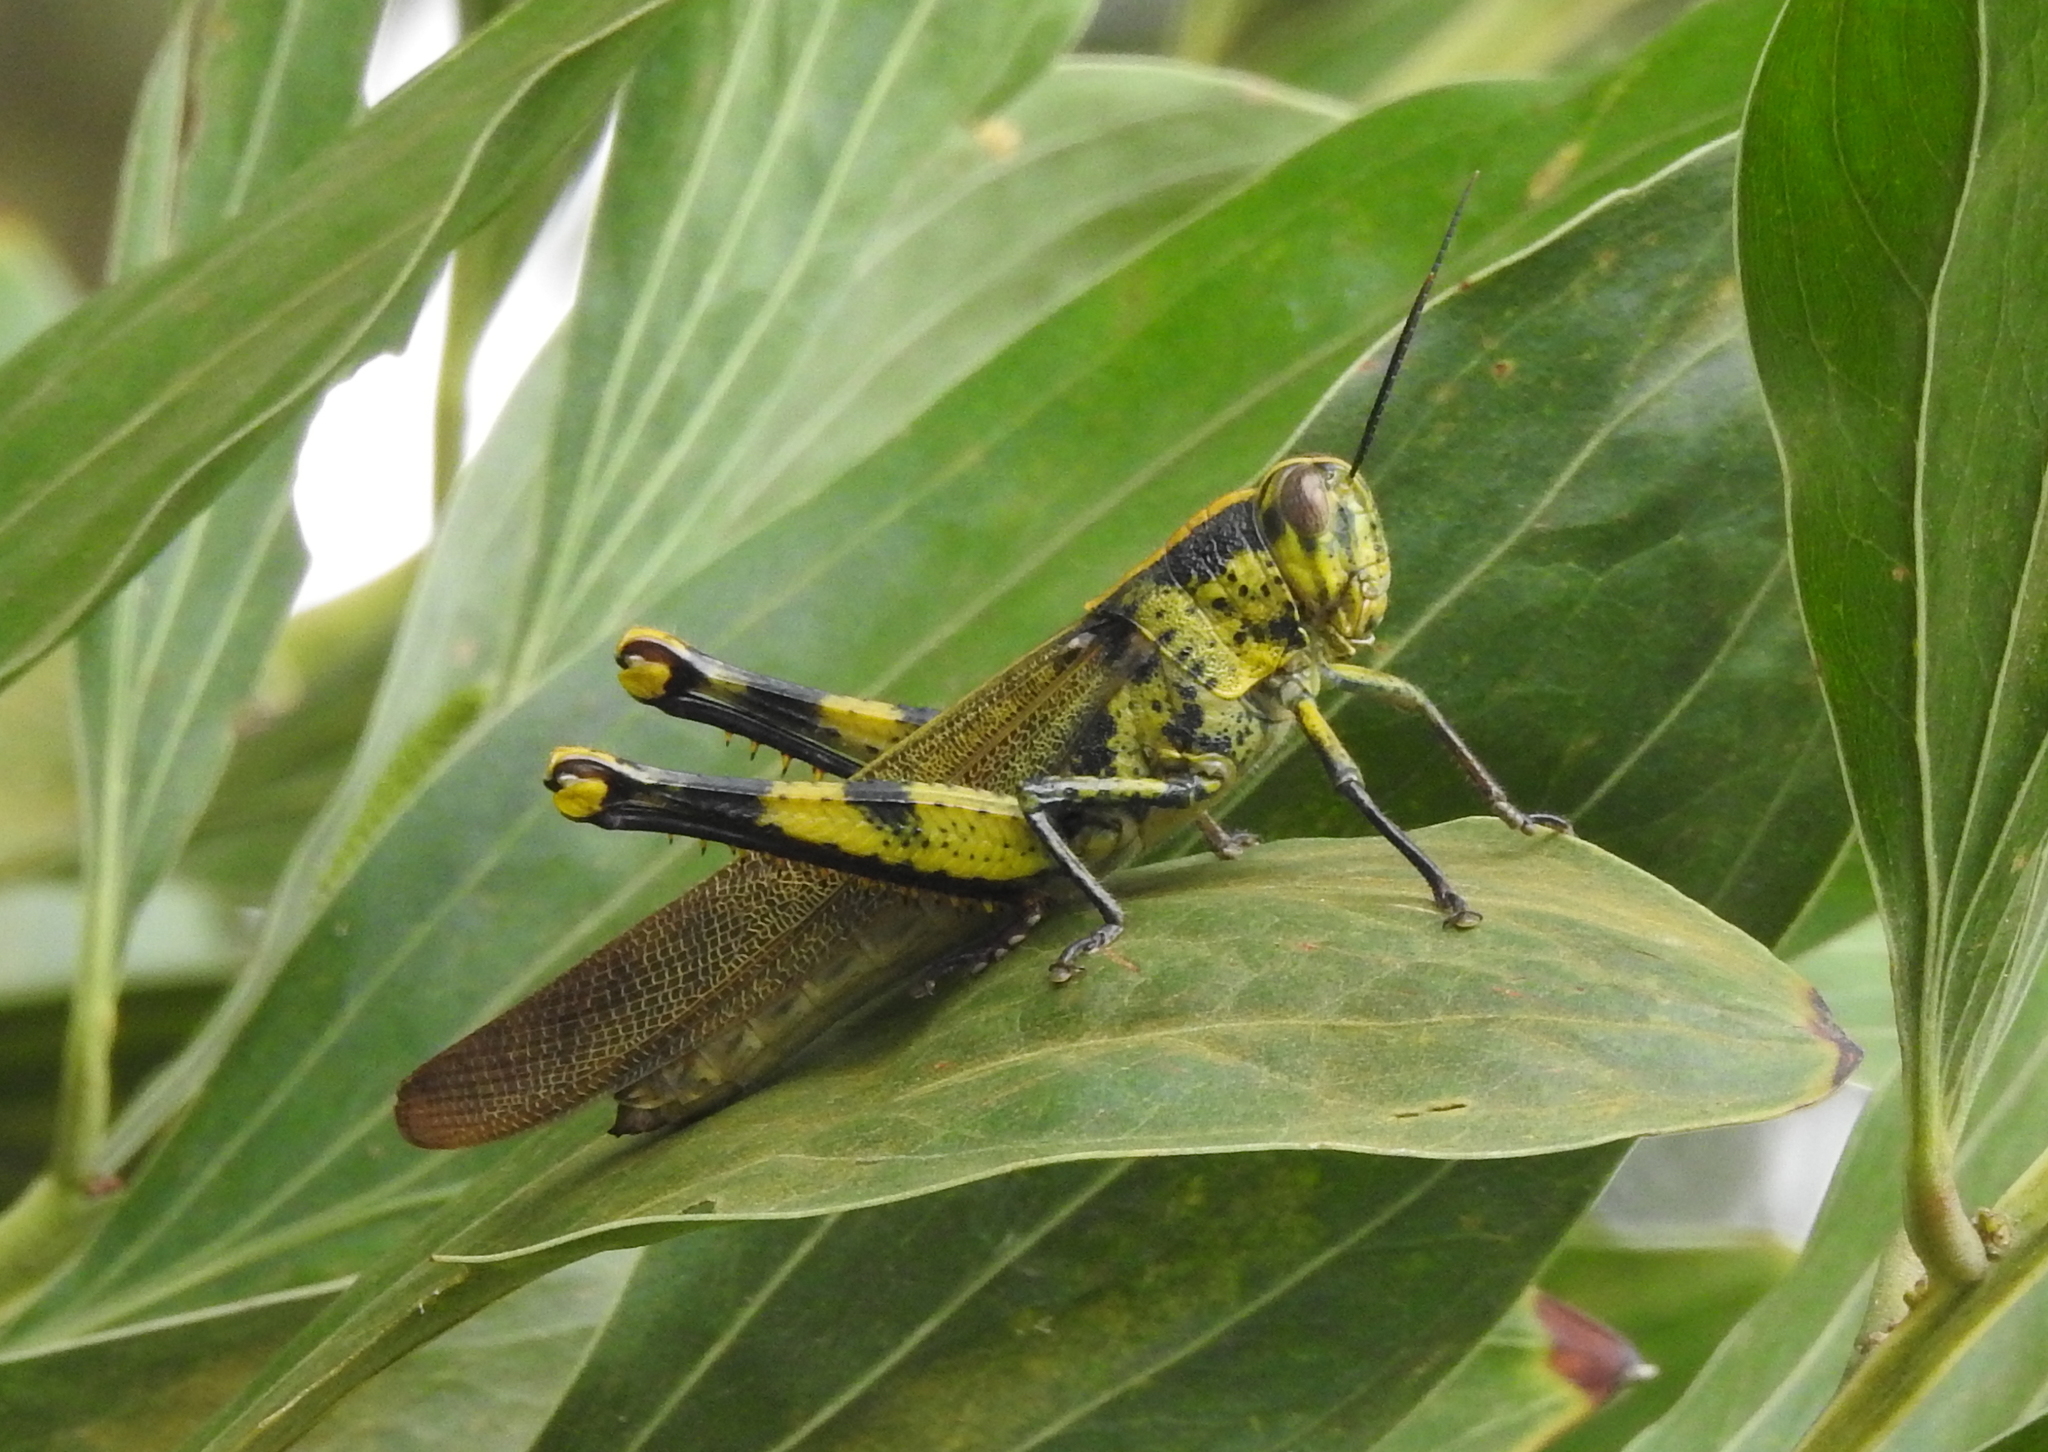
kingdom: Animalia
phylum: Arthropoda
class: Insecta
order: Orthoptera
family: Acrididae
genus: Valanga
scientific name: Valanga nigricornis
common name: Javanese bird grasshopper
